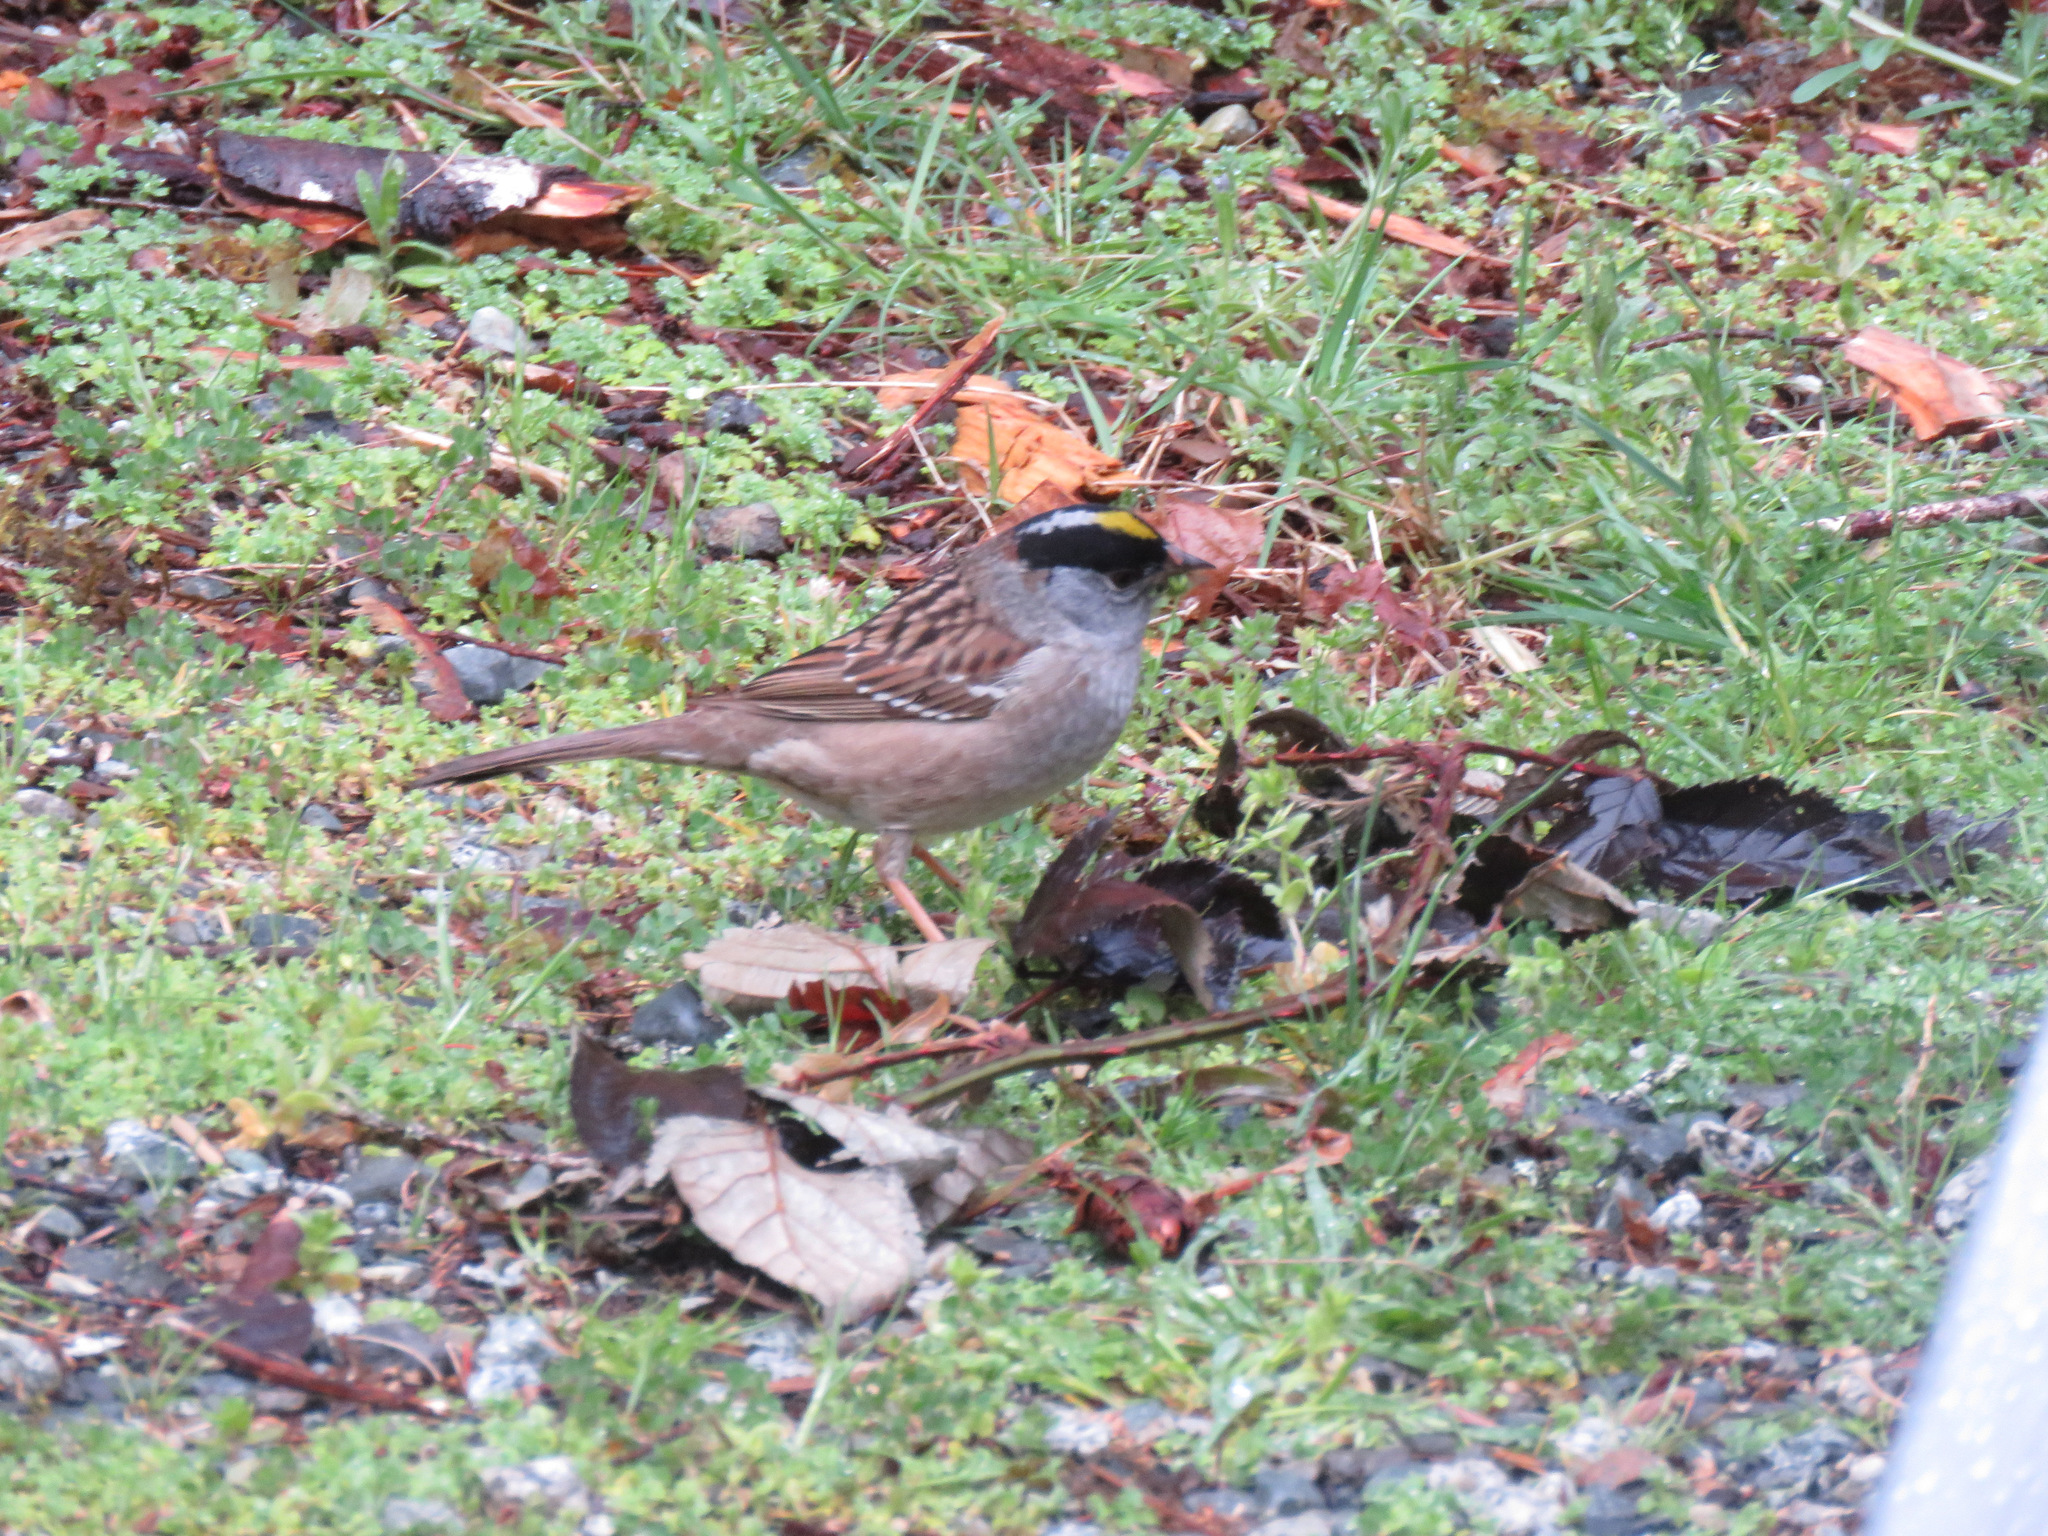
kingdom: Animalia
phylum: Chordata
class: Aves
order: Passeriformes
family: Passerellidae
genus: Zonotrichia
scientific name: Zonotrichia atricapilla
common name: Golden-crowned sparrow
